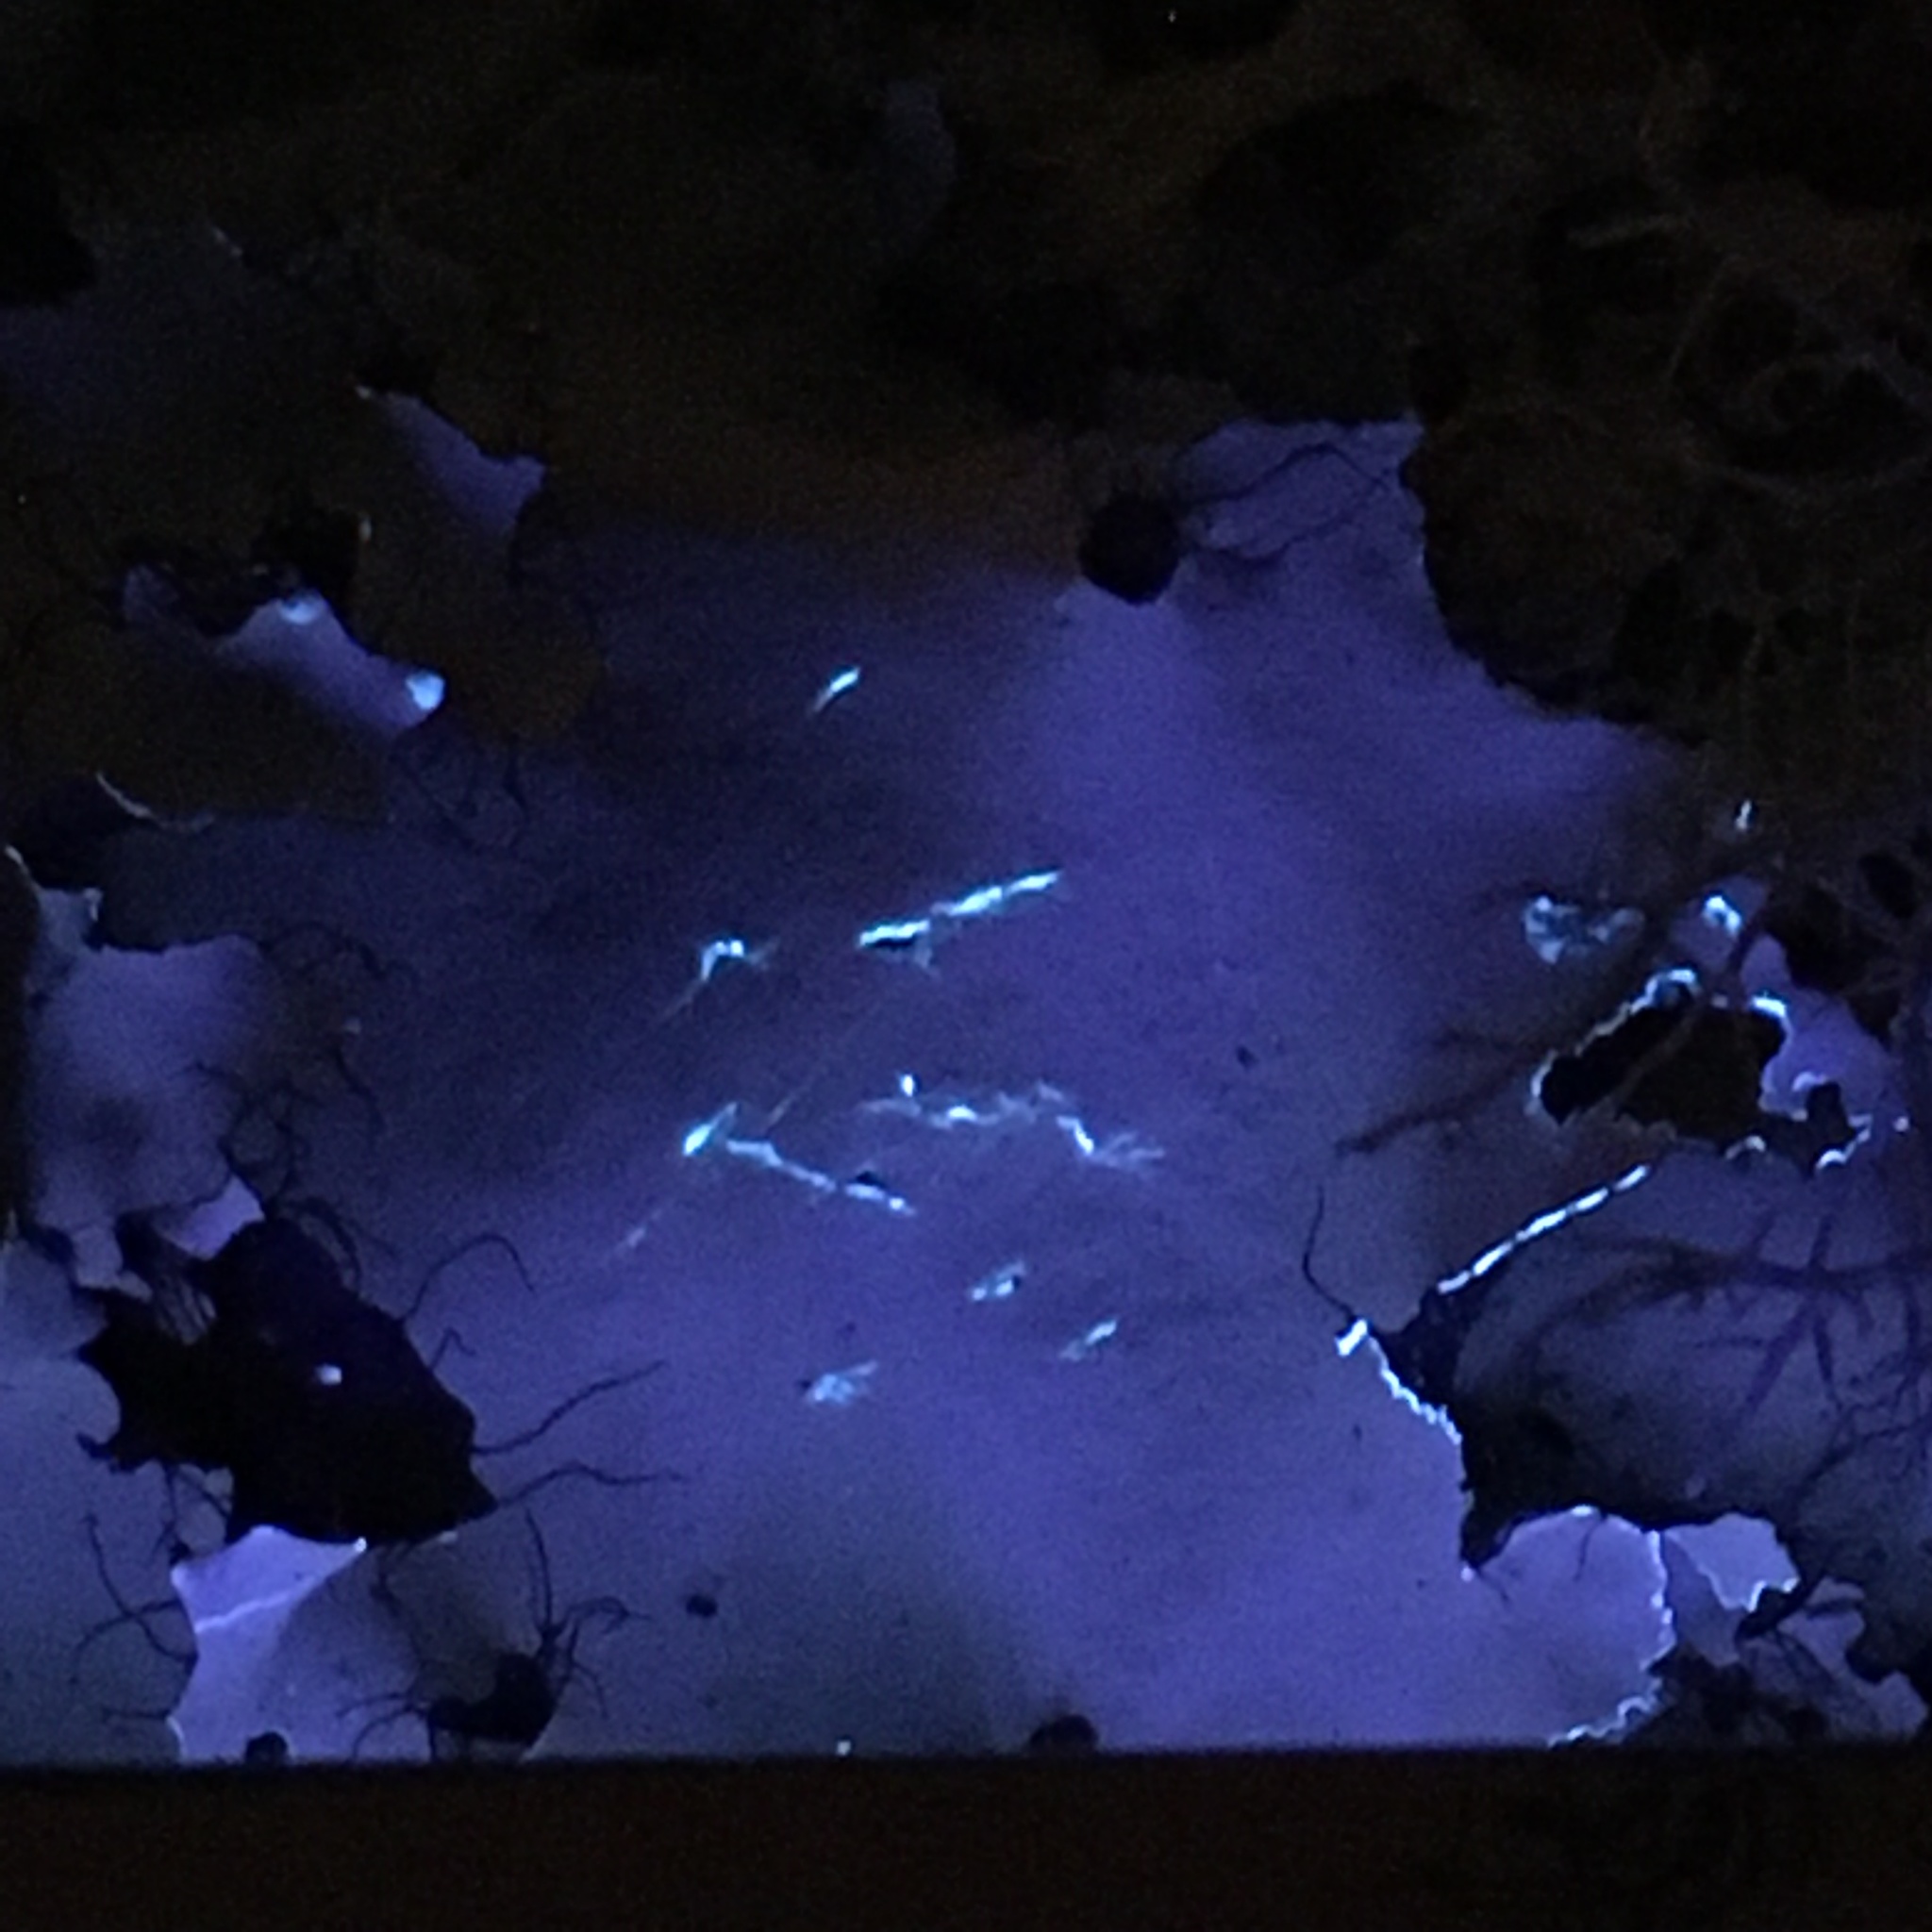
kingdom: Fungi
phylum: Ascomycota
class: Lecanoromycetes
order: Lecanorales
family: Parmeliaceae
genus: Parmotrema
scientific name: Parmotrema arnoldii
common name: Arnold's parmotrema lichen
